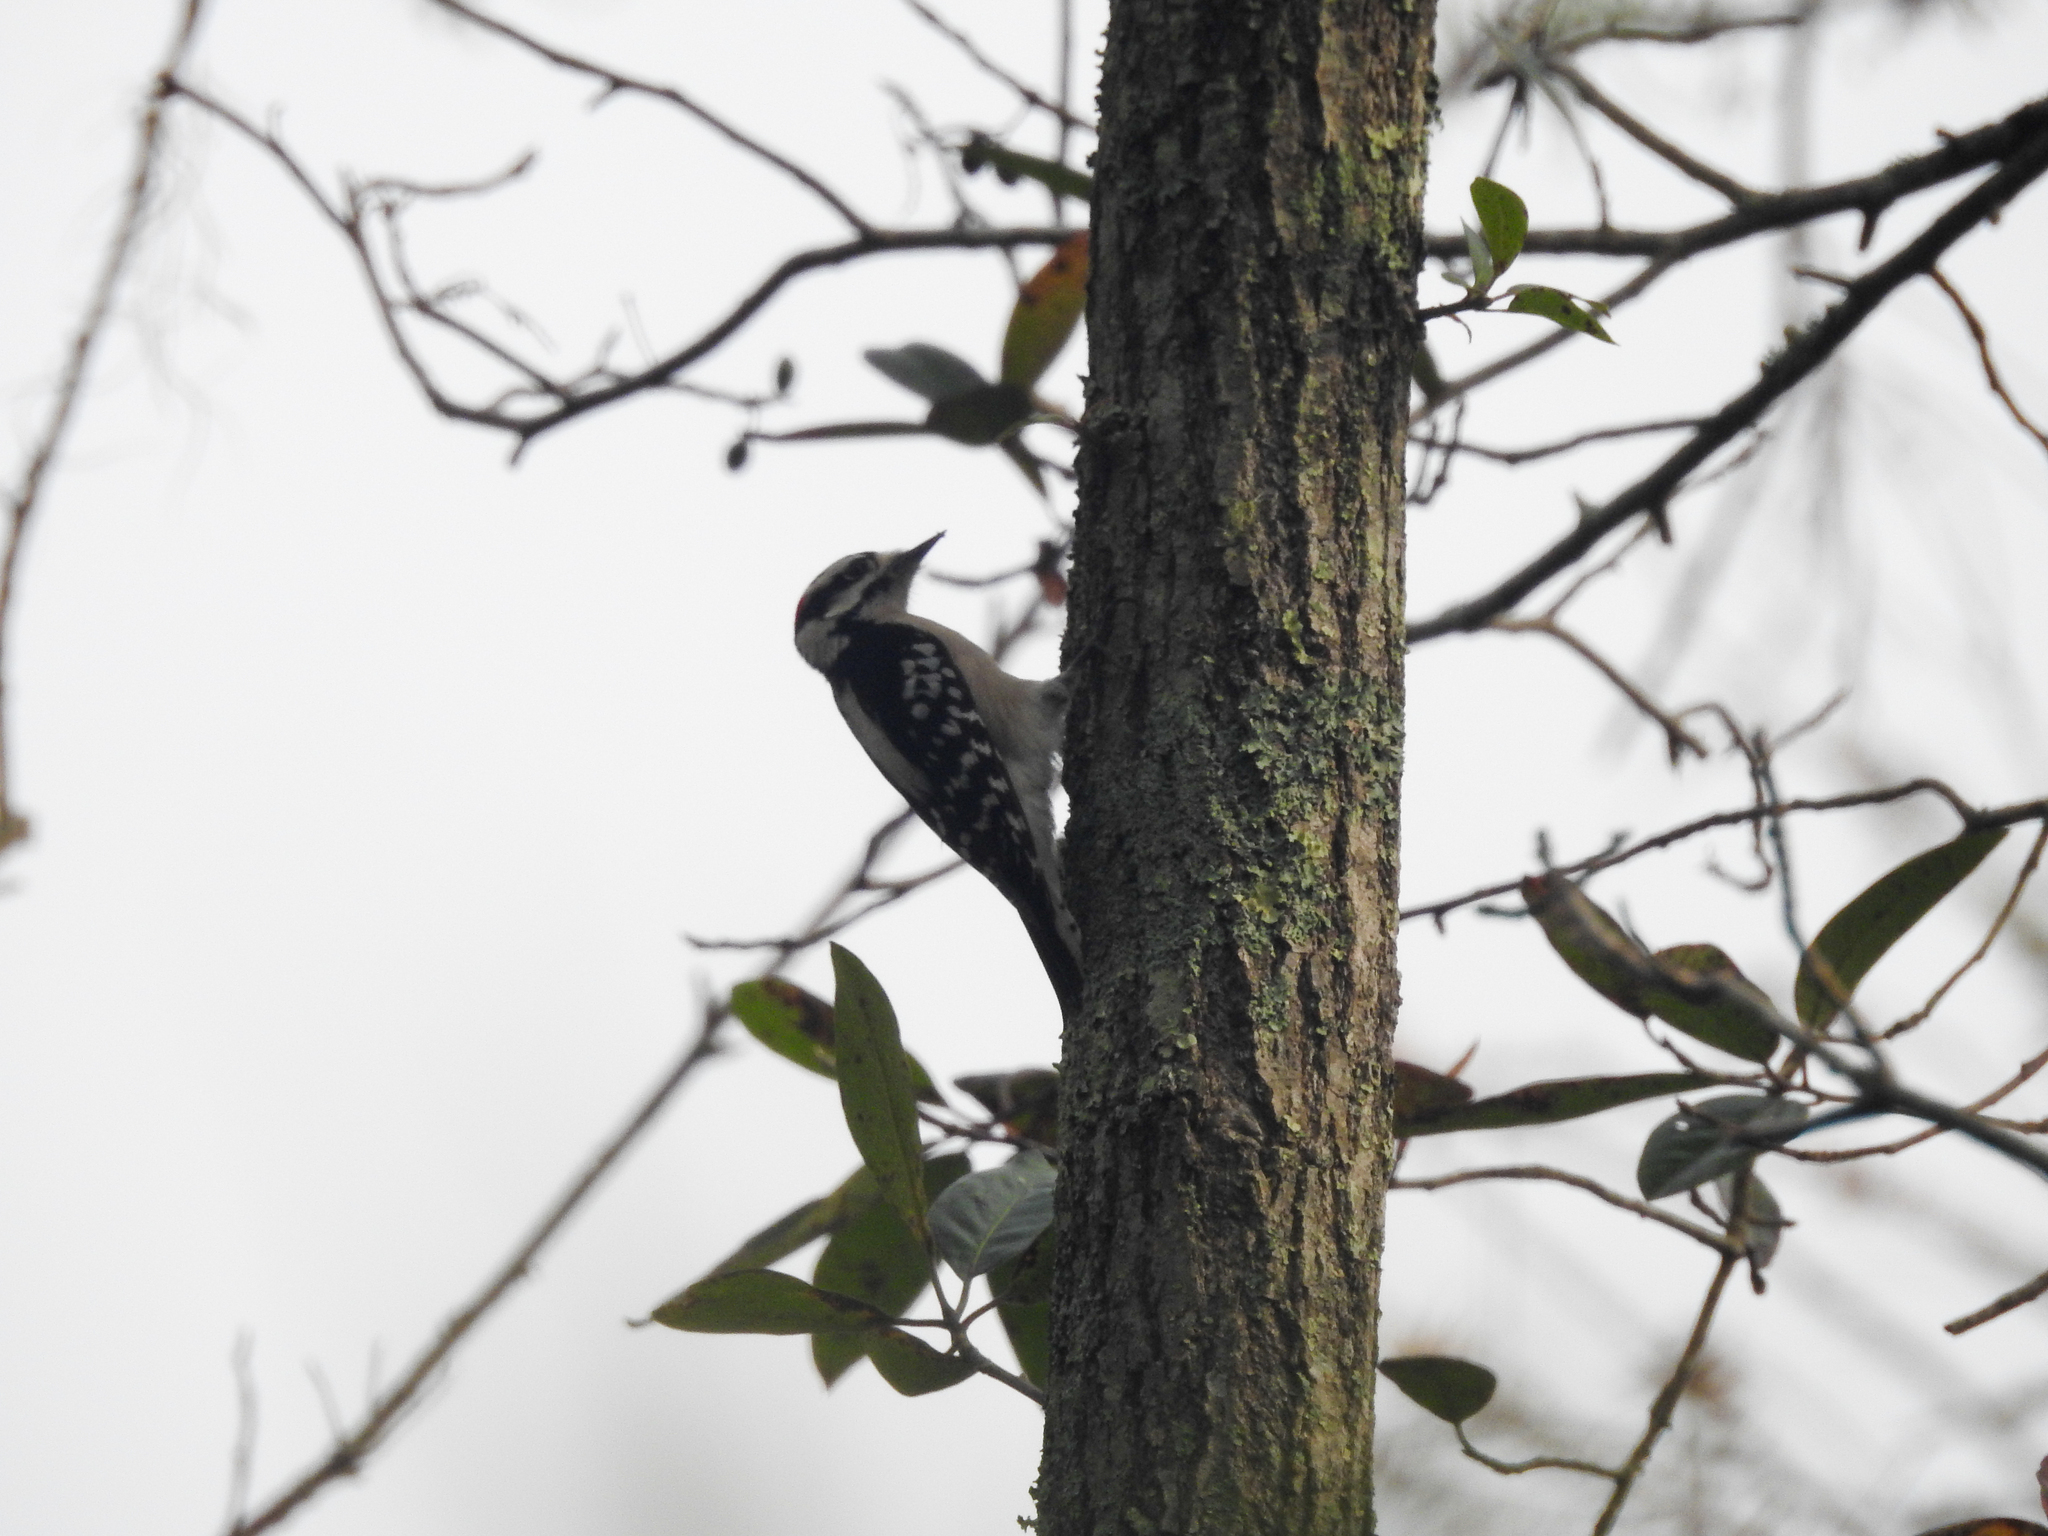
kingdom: Animalia
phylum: Chordata
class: Aves
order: Piciformes
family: Picidae
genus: Dryobates
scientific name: Dryobates pubescens
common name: Downy woodpecker
